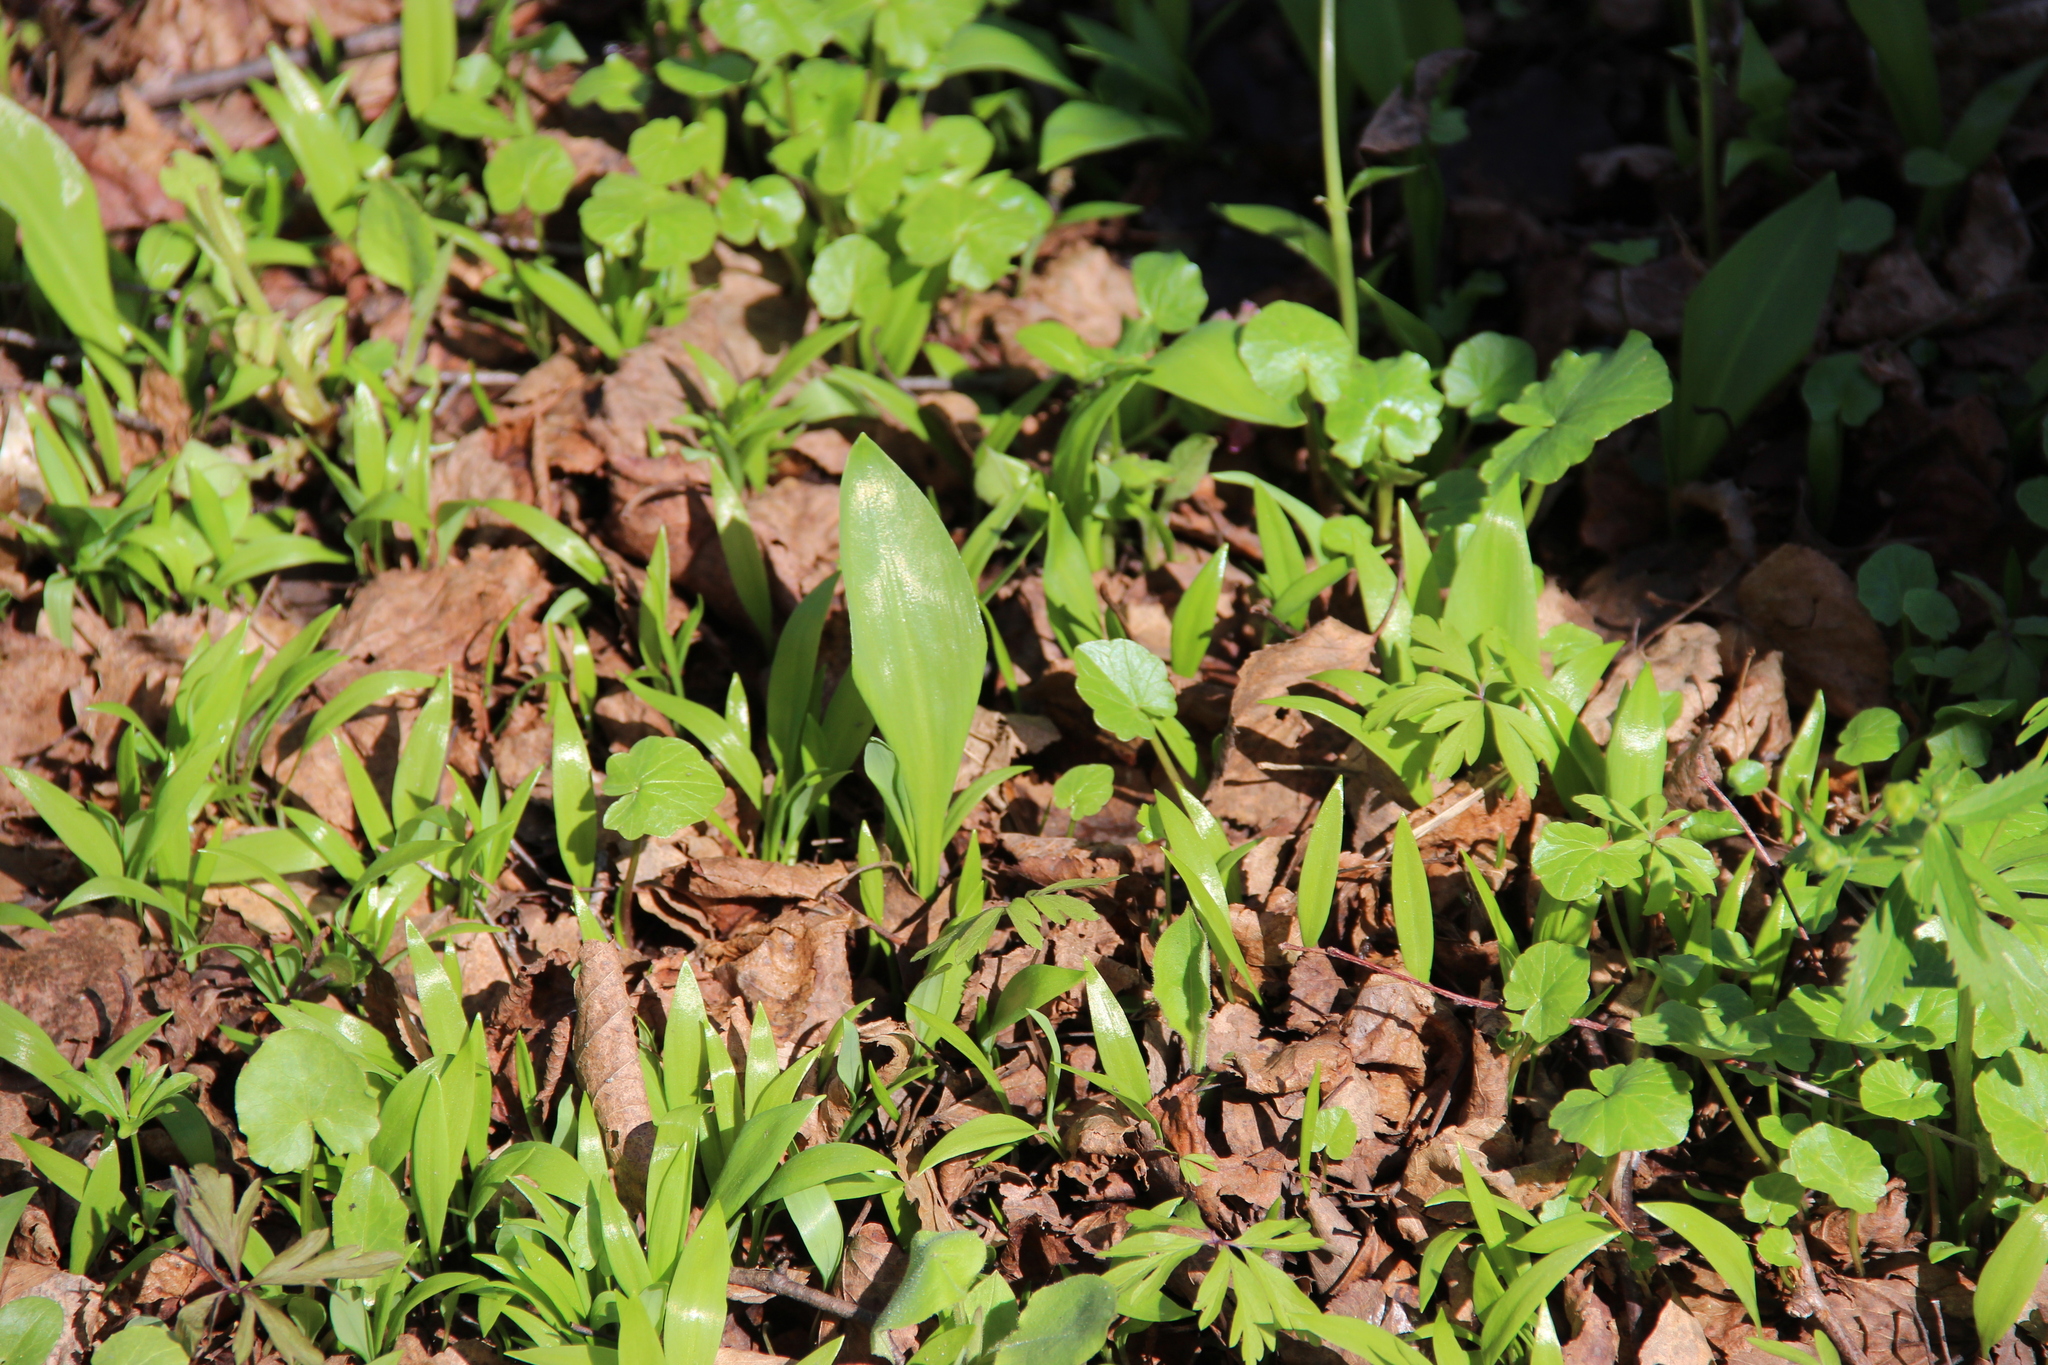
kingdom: Plantae
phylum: Tracheophyta
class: Liliopsida
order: Asparagales
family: Amaryllidaceae
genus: Allium
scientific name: Allium ursinum
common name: Ramsons
